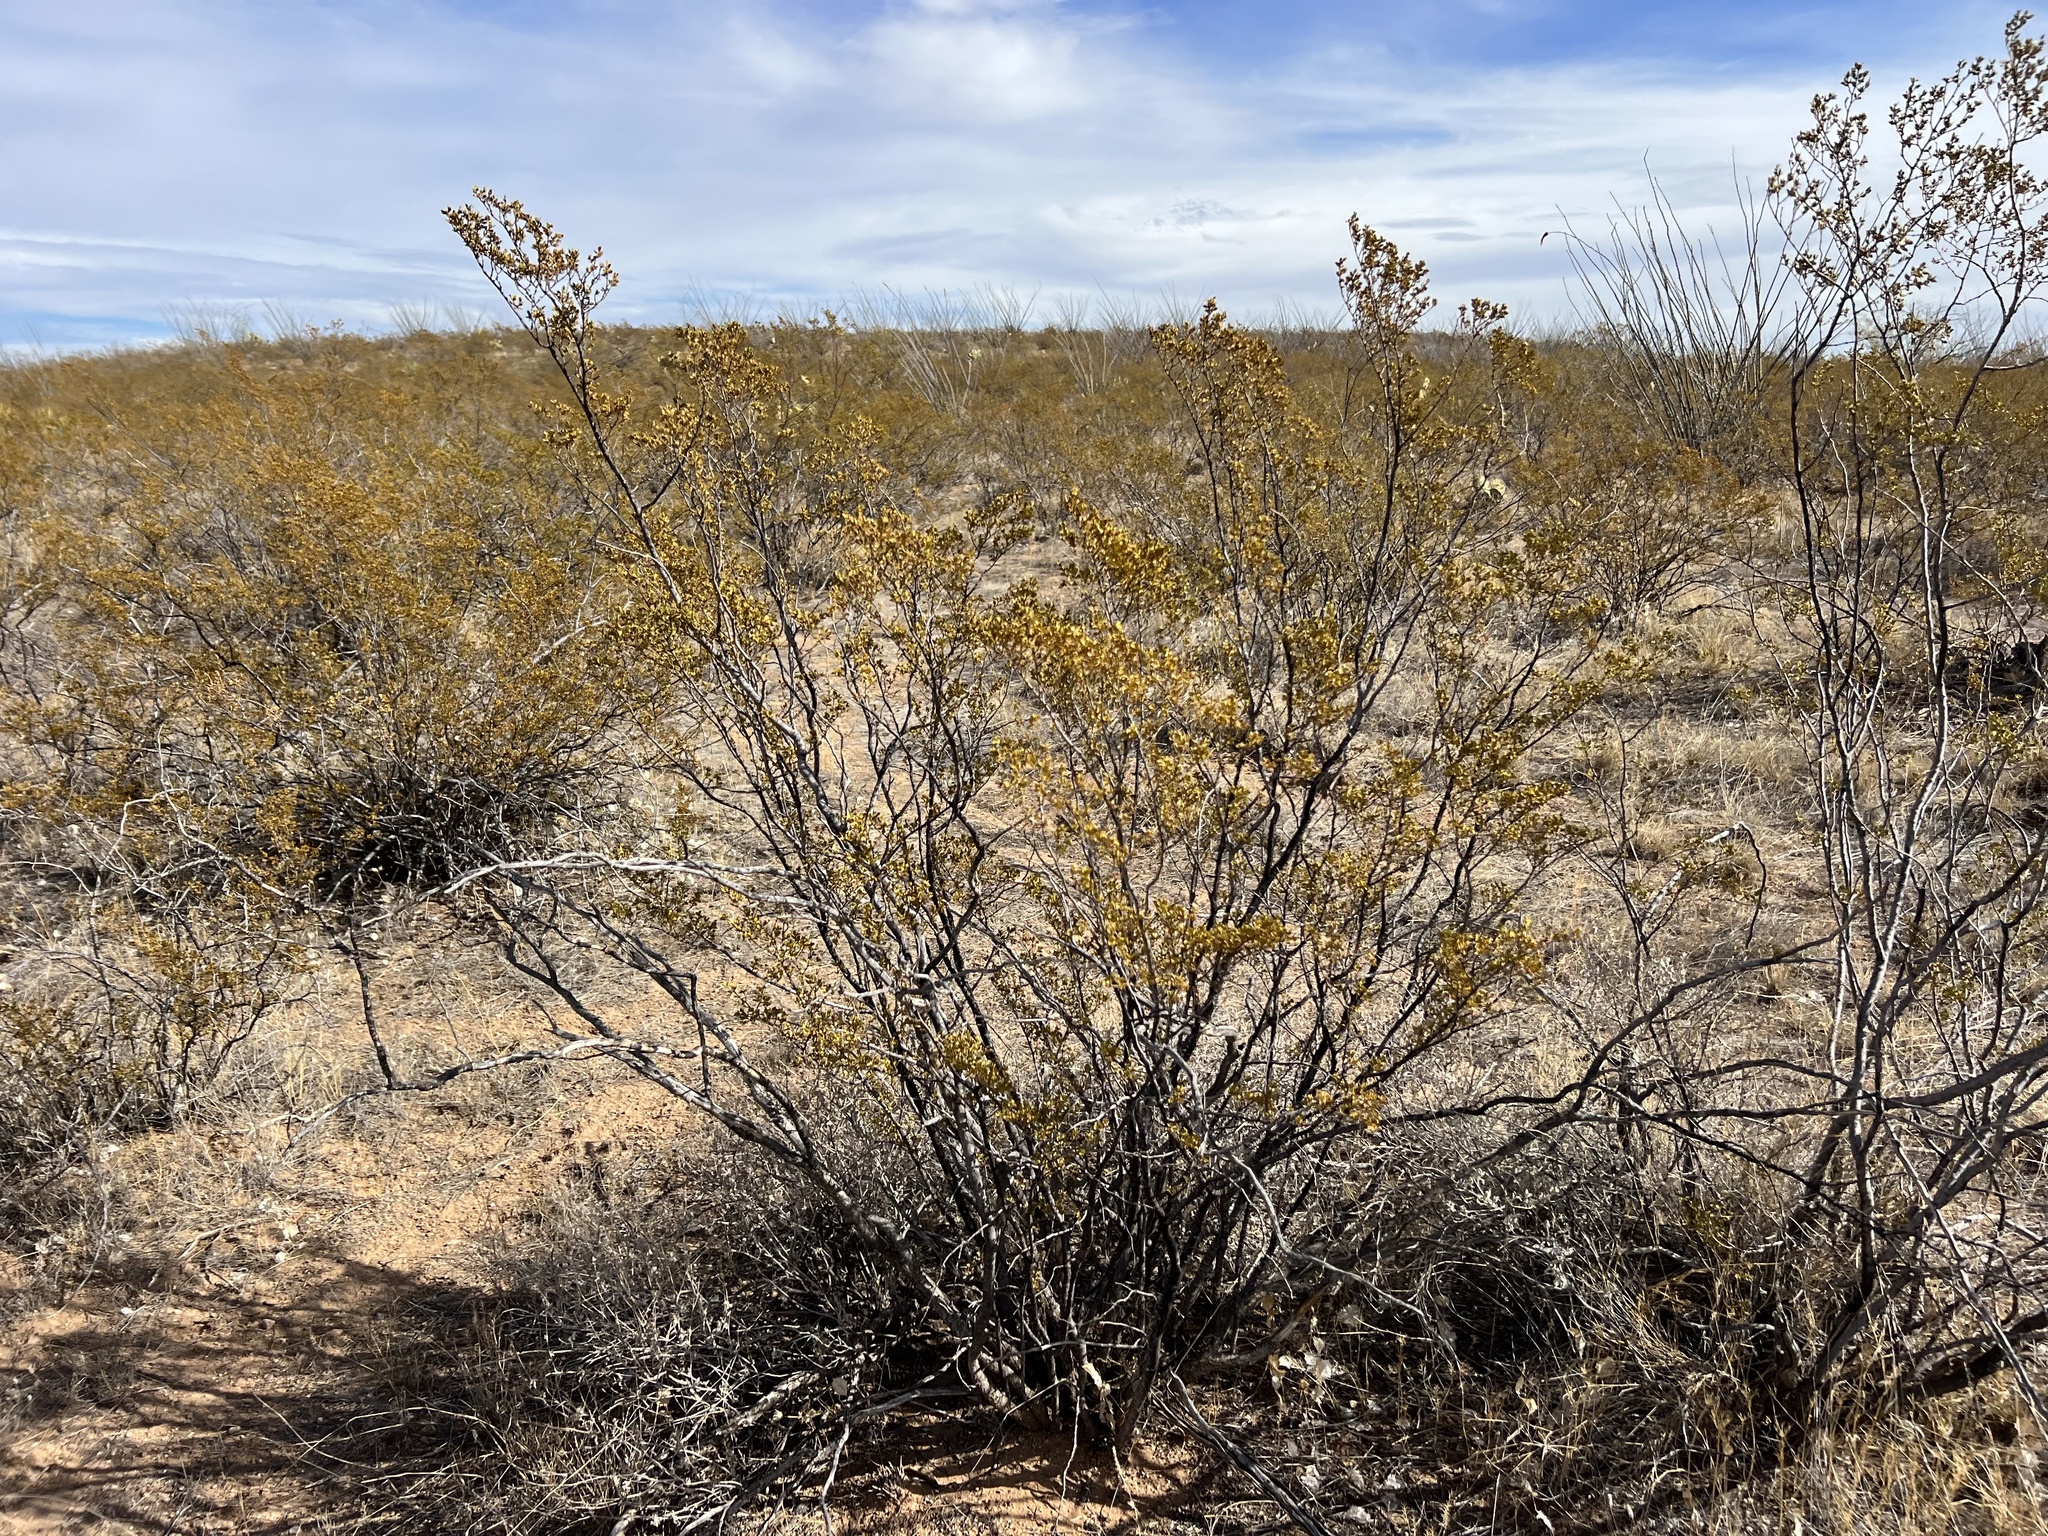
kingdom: Plantae
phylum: Tracheophyta
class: Magnoliopsida
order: Zygophyllales
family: Zygophyllaceae
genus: Larrea
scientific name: Larrea tridentata
